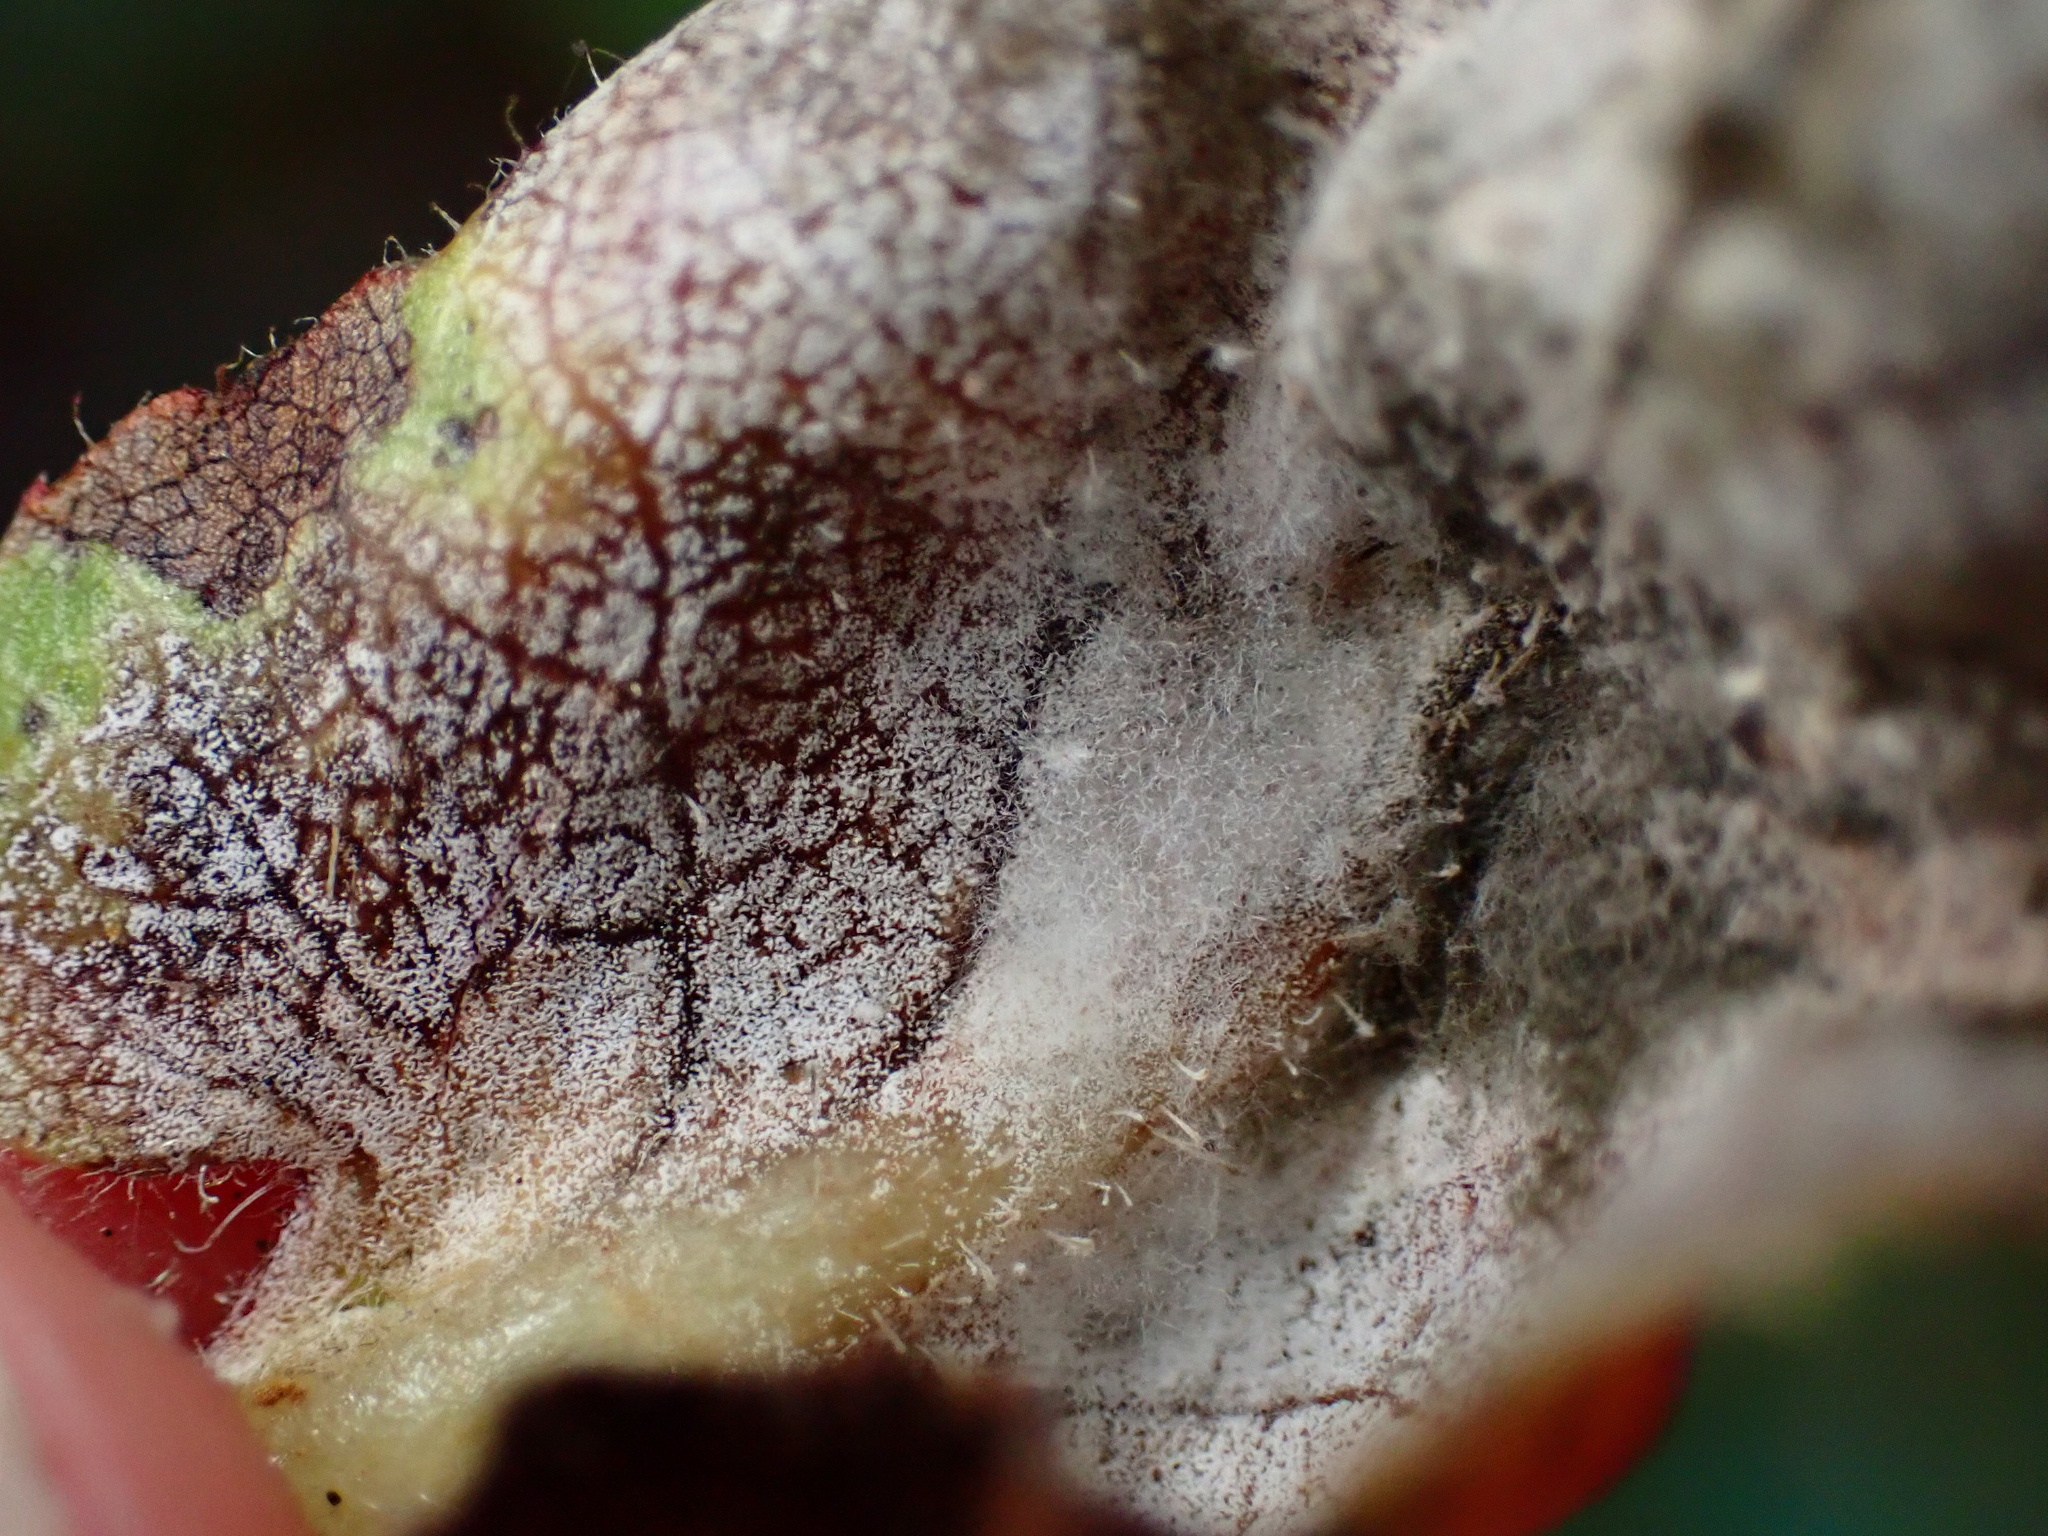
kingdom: Fungi
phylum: Basidiomycota
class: Exobasidiomycetes
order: Exobasidiales
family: Exobasidiaceae
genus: Exobasidium
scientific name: Exobasidium arctostaphyli
